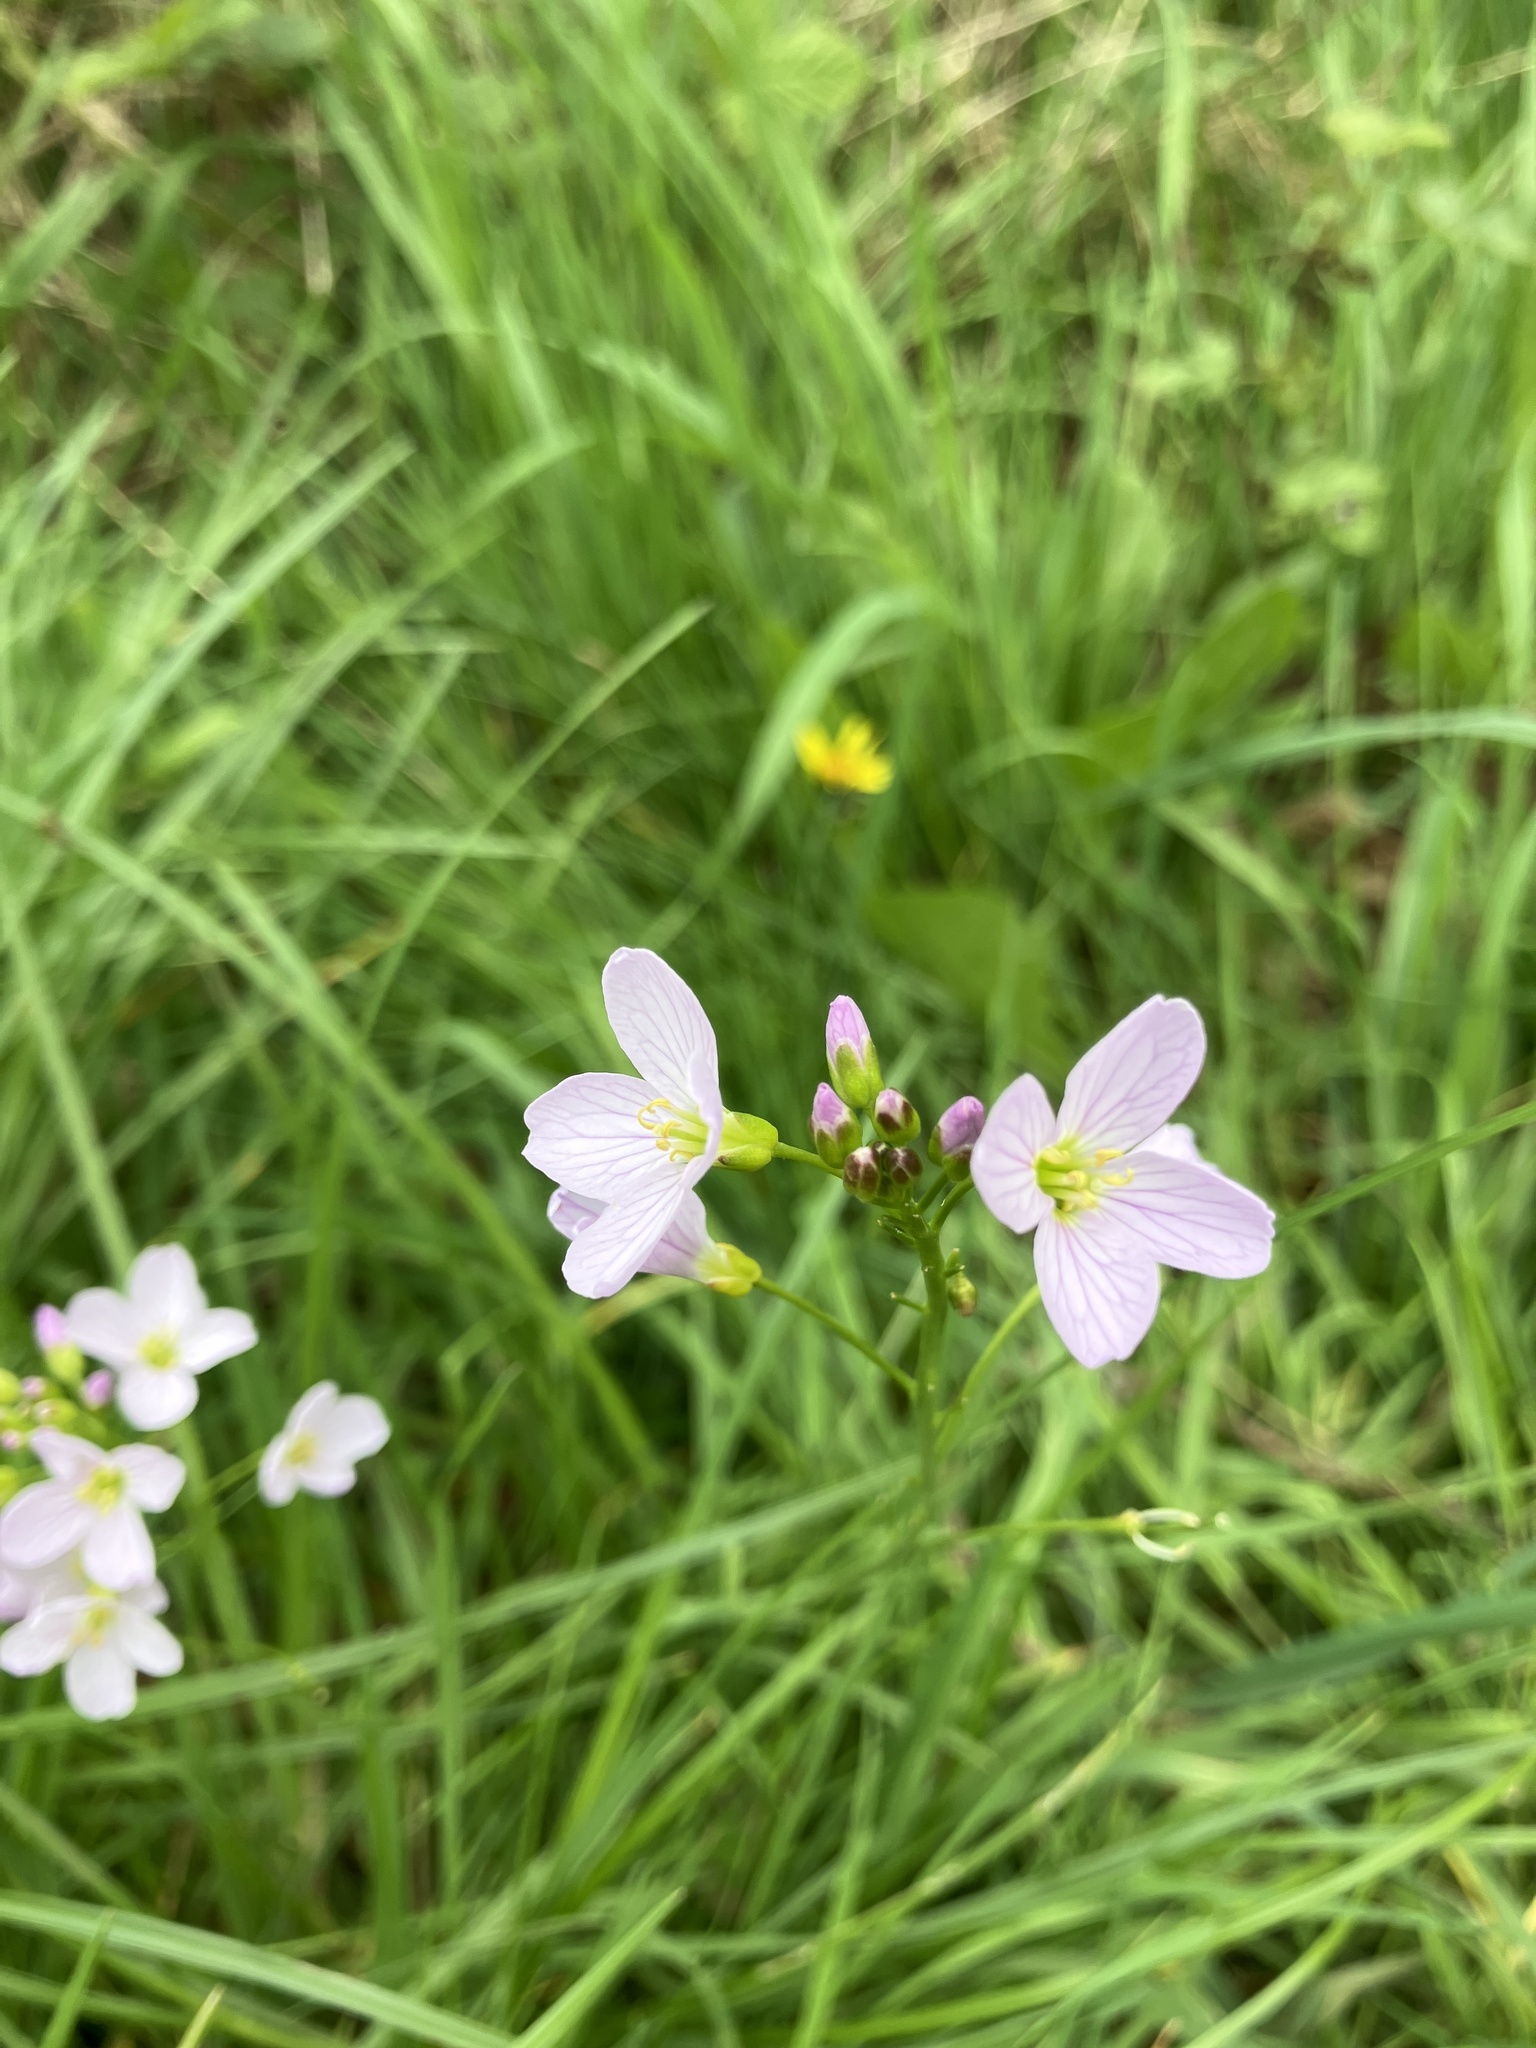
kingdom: Plantae
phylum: Tracheophyta
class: Magnoliopsida
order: Brassicales
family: Brassicaceae
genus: Cardamine
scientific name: Cardamine pratensis
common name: Cuckoo flower
